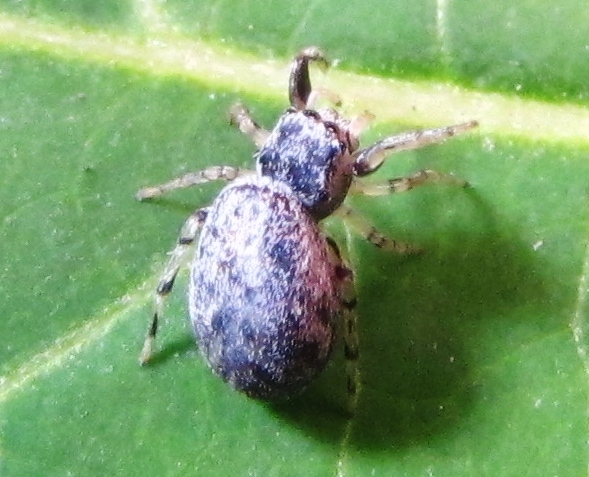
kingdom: Animalia
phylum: Arthropoda
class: Arachnida
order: Araneae
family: Salticidae
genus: Zygoballus
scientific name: Zygoballus rufipes
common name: Jumping spiders
